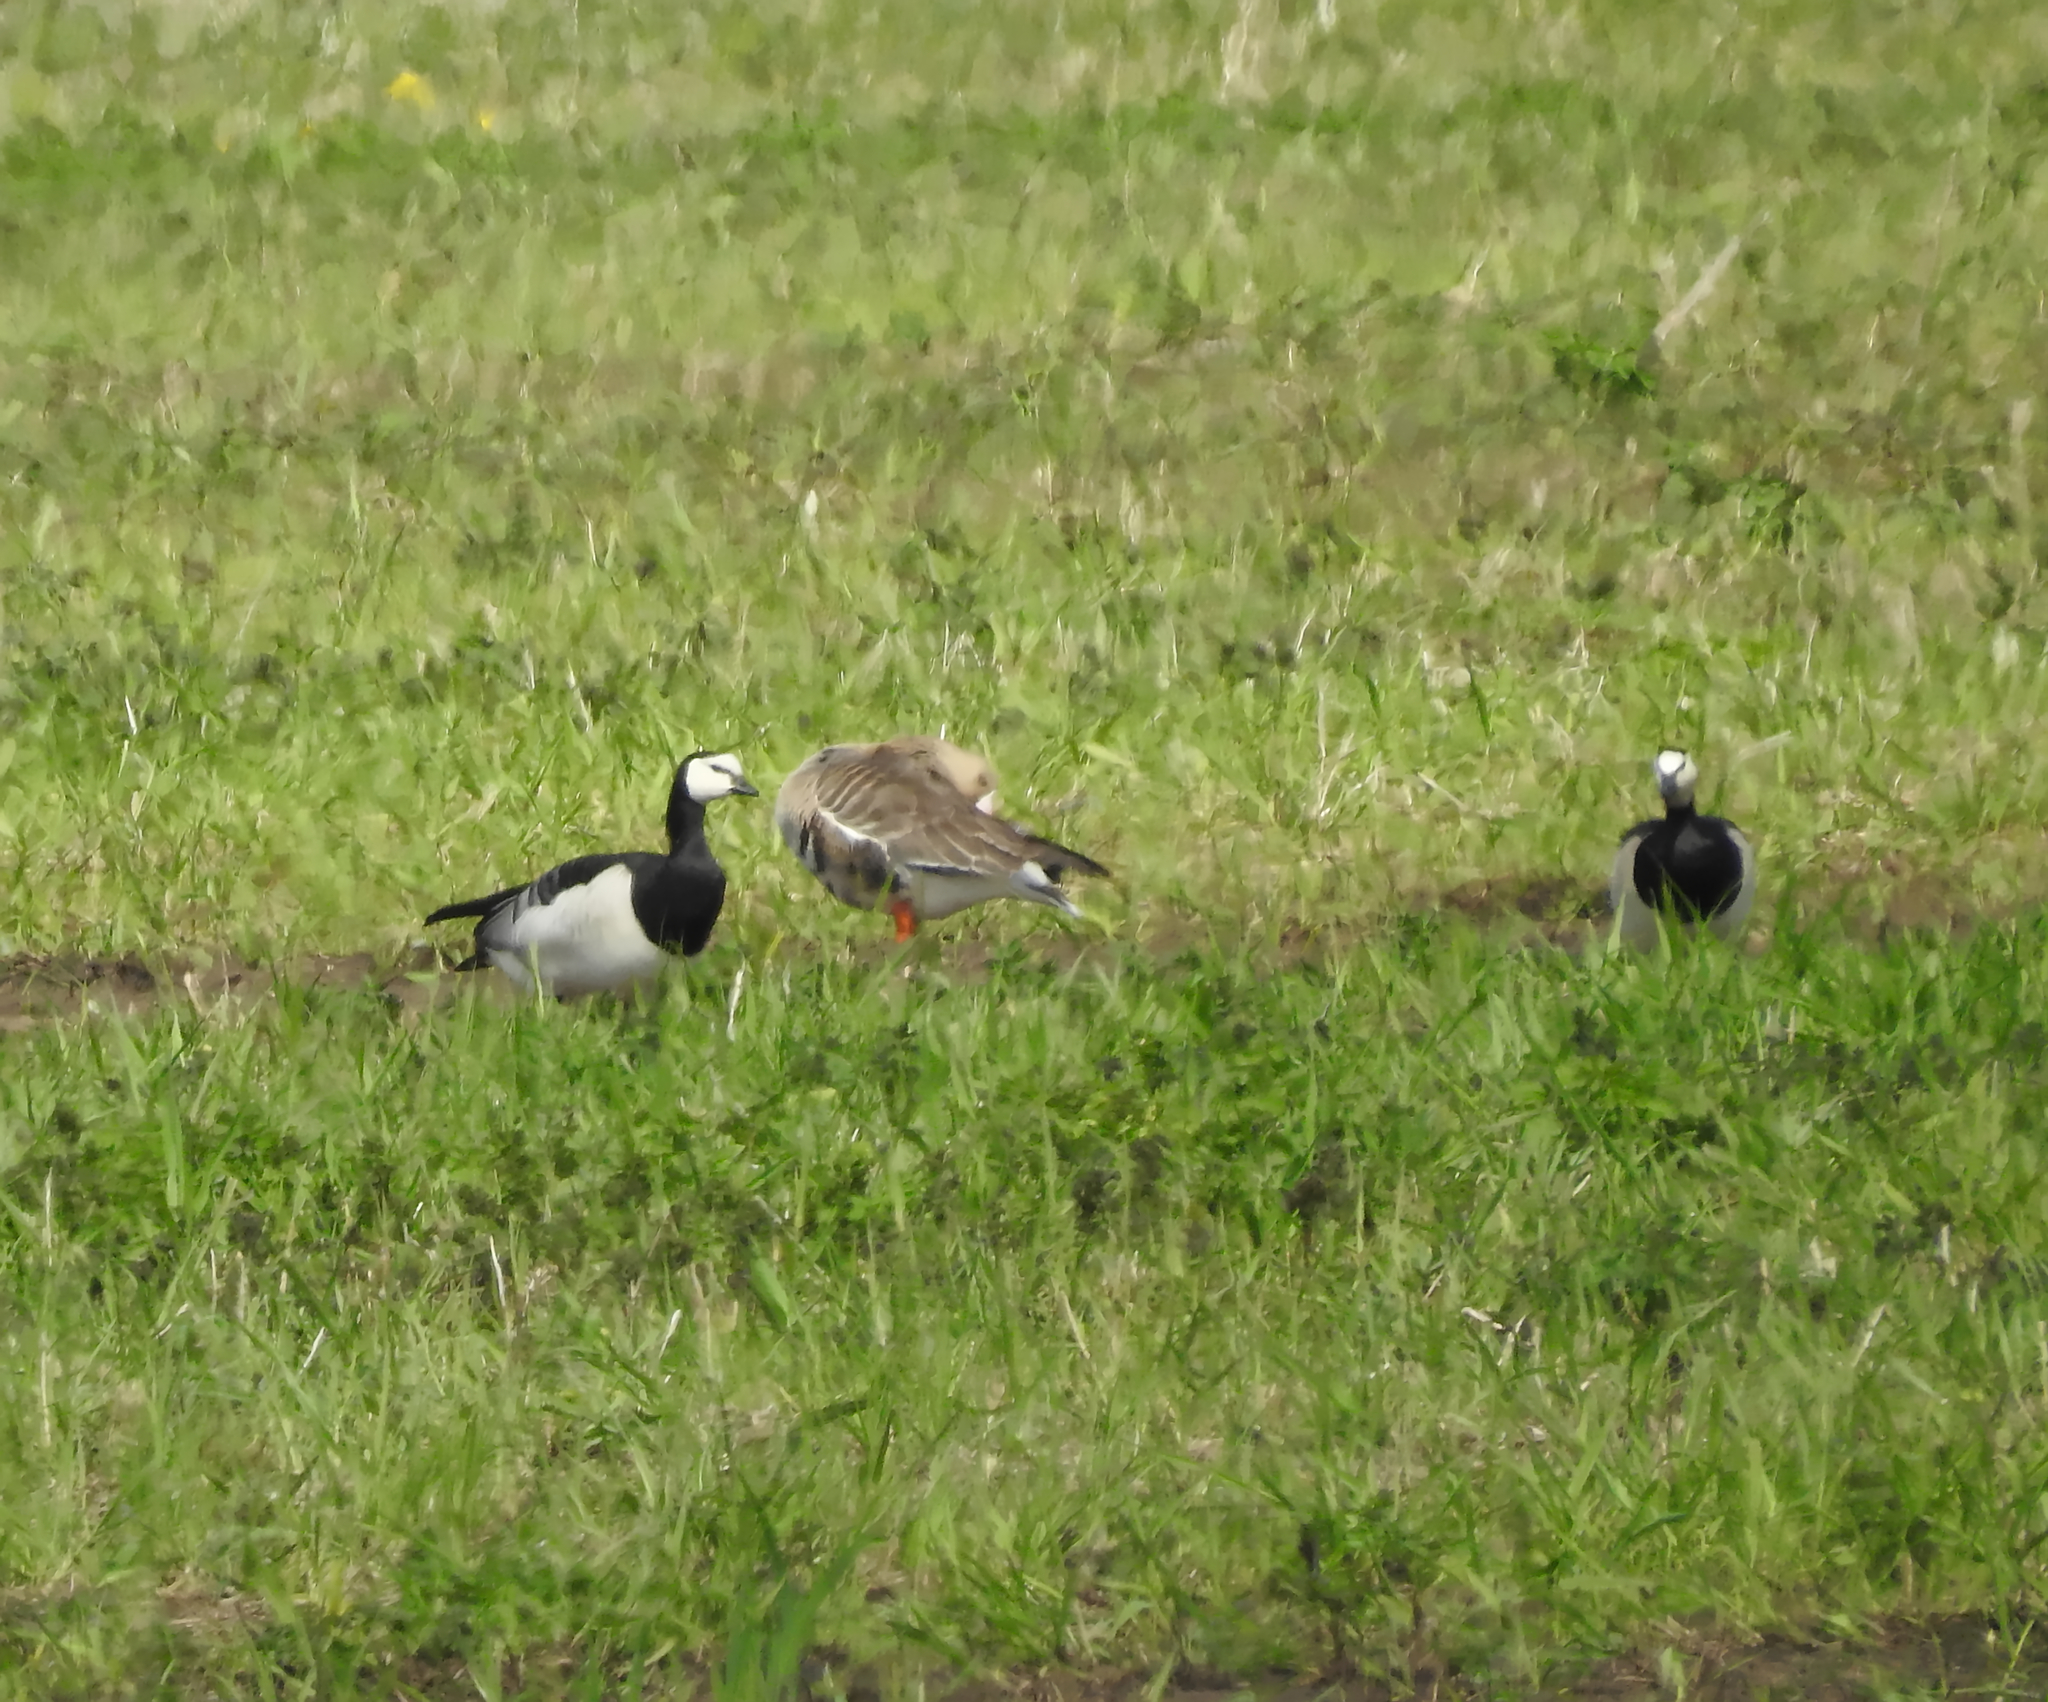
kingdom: Animalia
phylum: Chordata
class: Aves
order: Anseriformes
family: Anatidae
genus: Branta
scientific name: Branta leucopsis
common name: Barnacle goose
